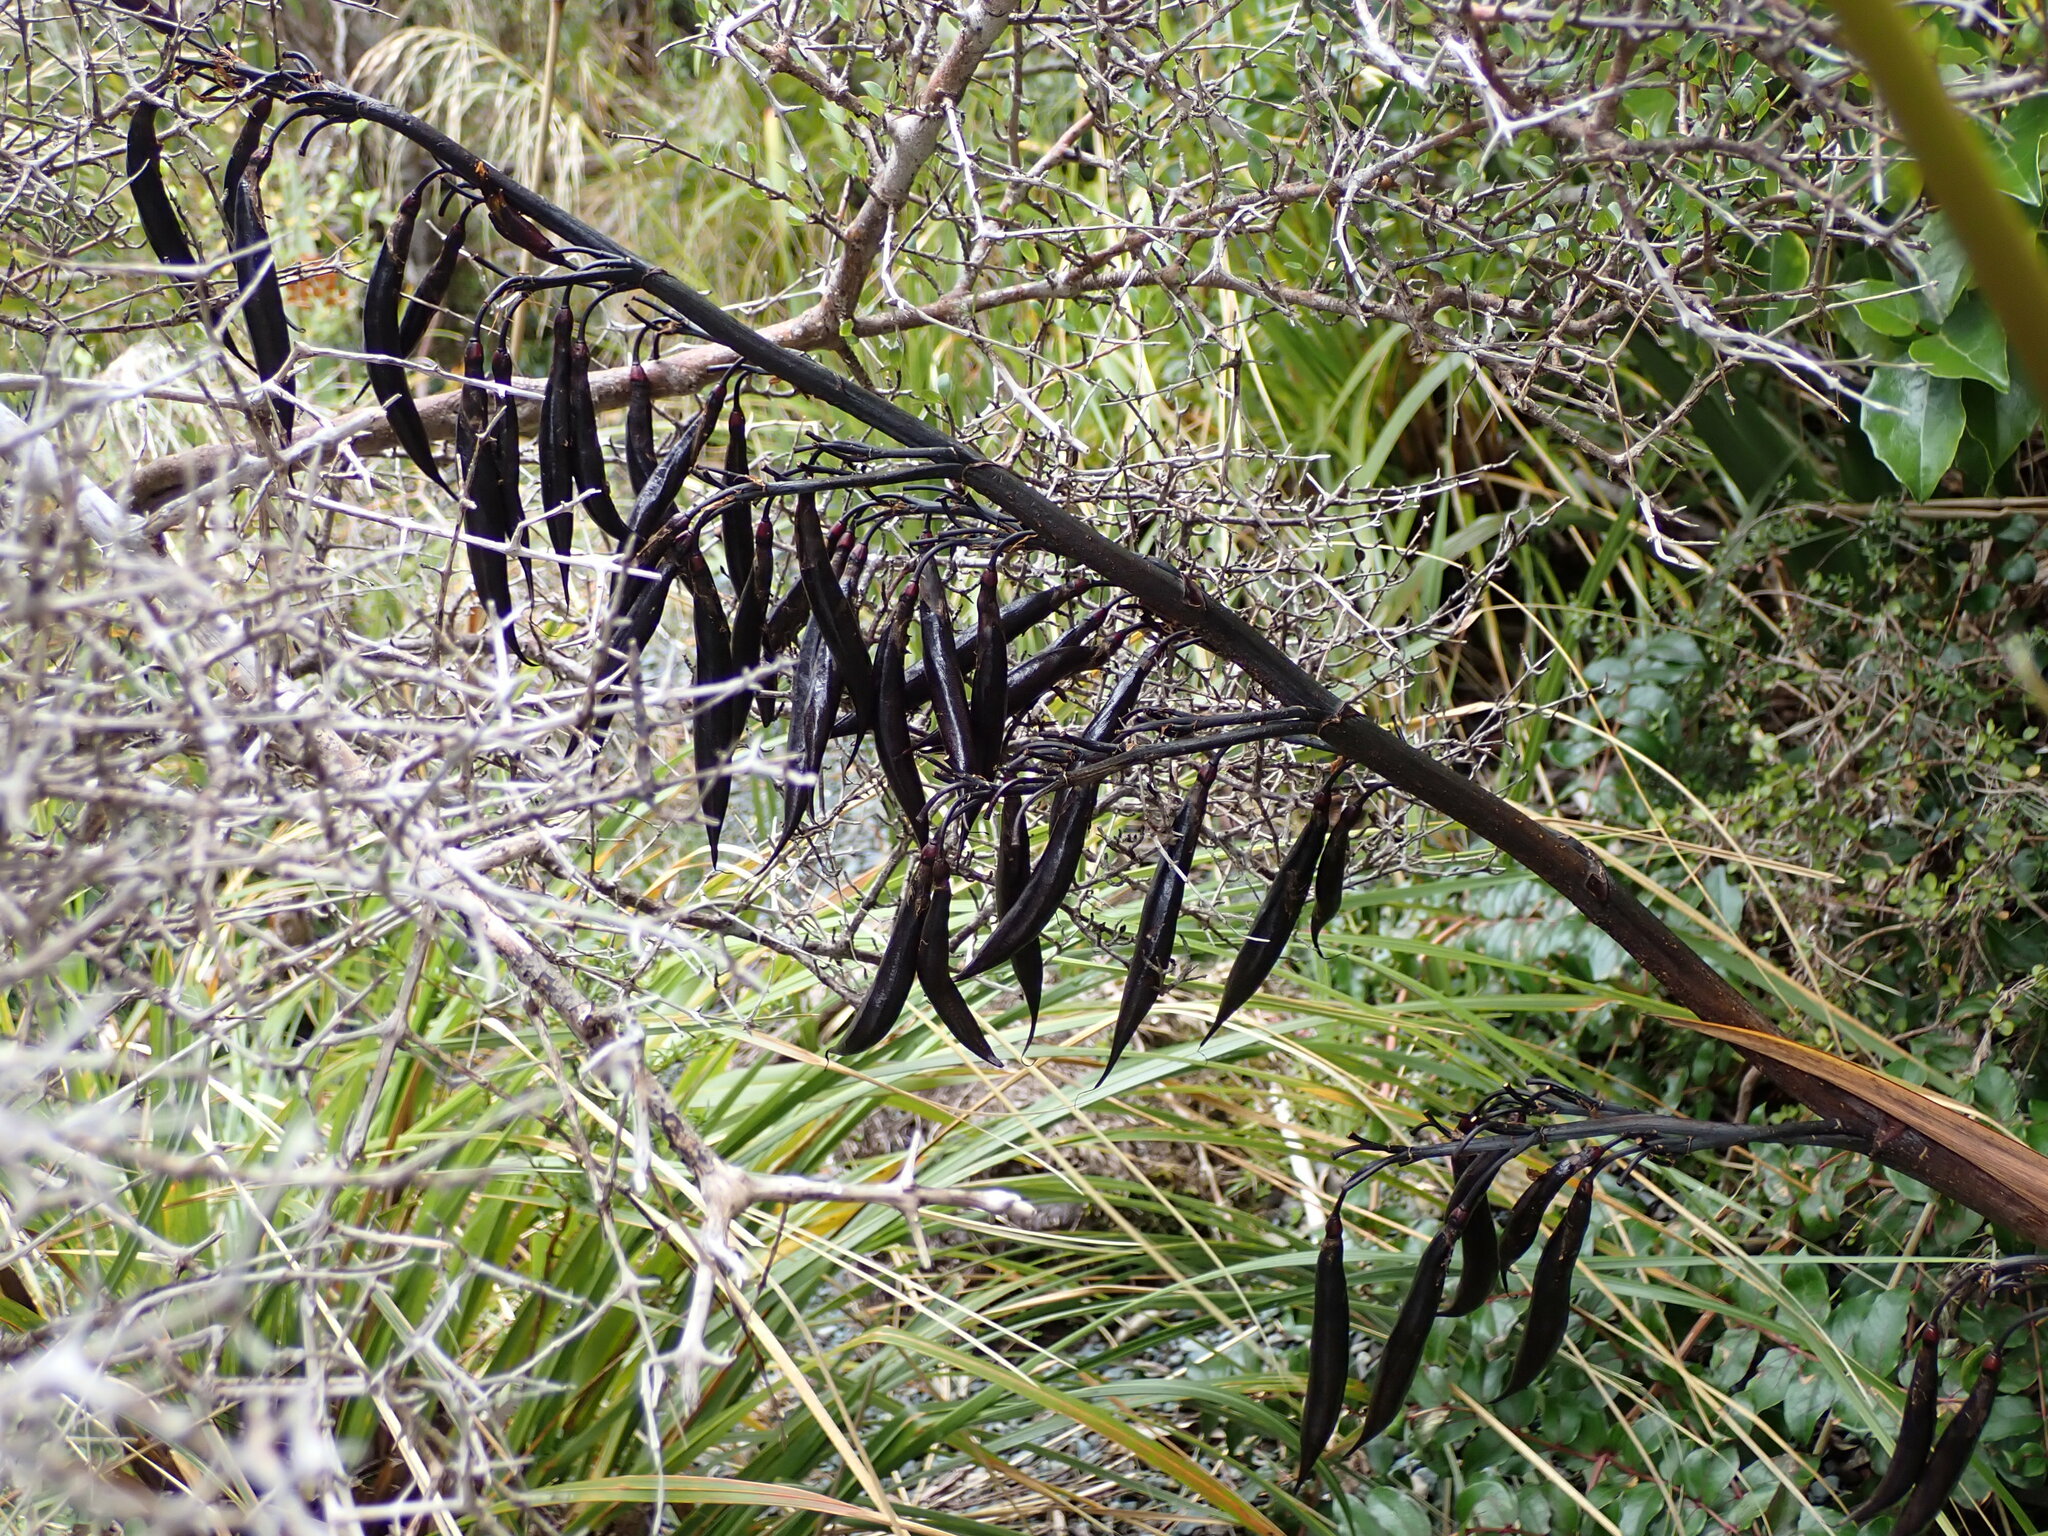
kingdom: Plantae
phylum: Tracheophyta
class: Liliopsida
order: Asparagales
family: Asphodelaceae
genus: Phormium
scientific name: Phormium colensoi
